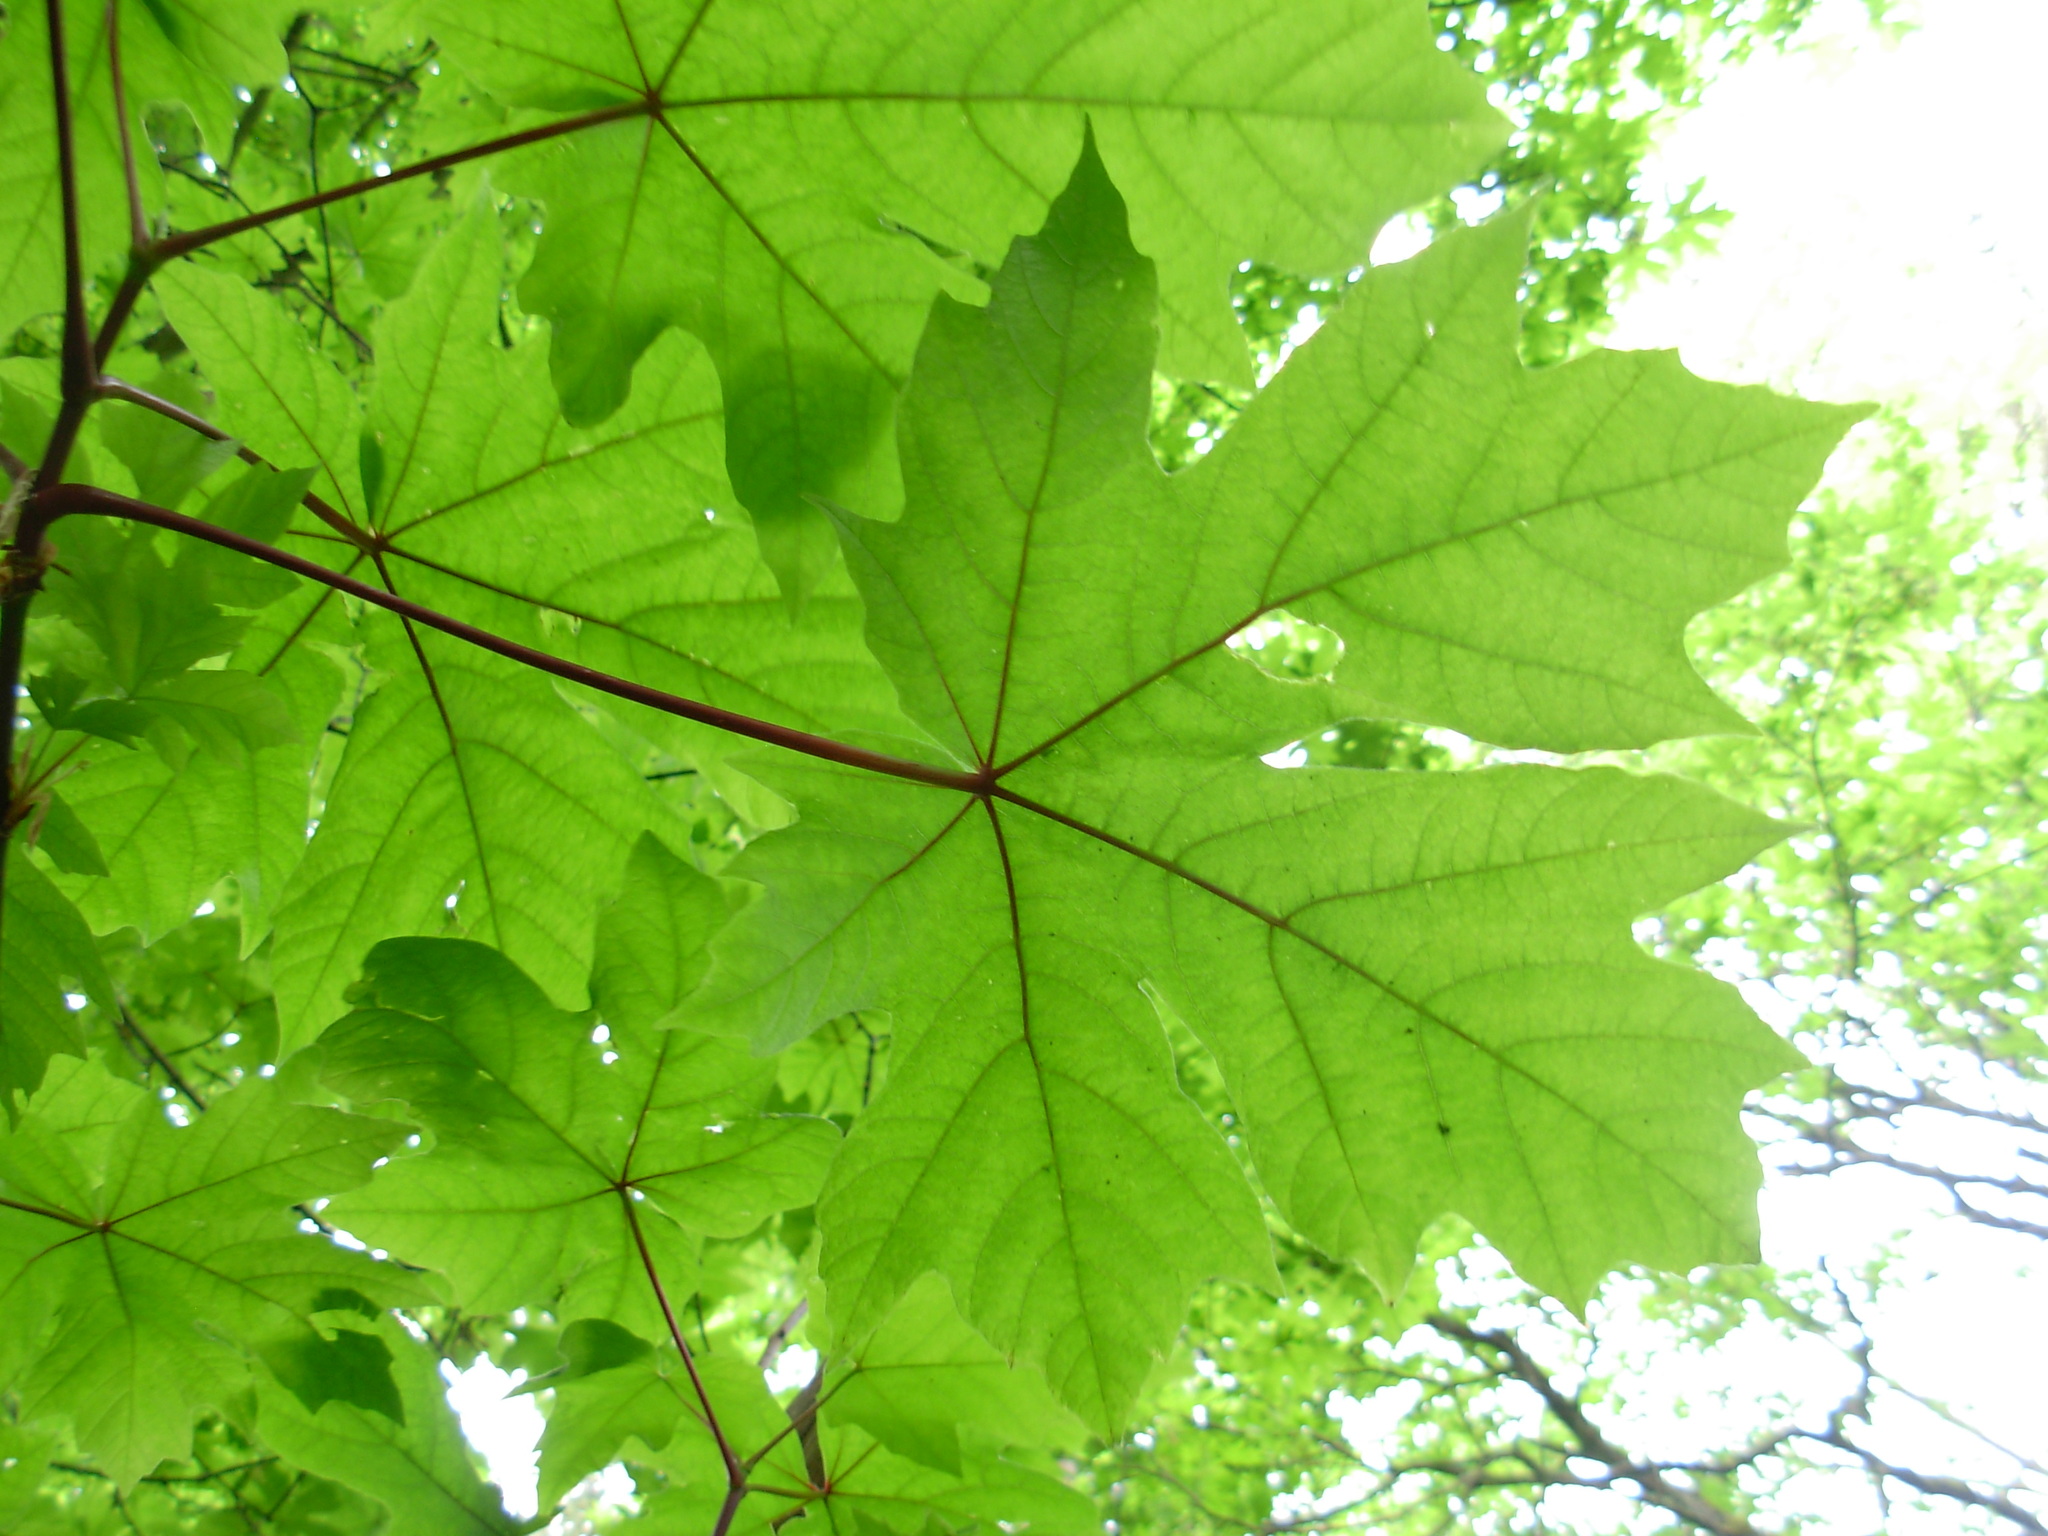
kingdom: Plantae
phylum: Tracheophyta
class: Magnoliopsida
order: Sapindales
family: Sapindaceae
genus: Acer
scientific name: Acer macrophyllum
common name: Oregon maple
